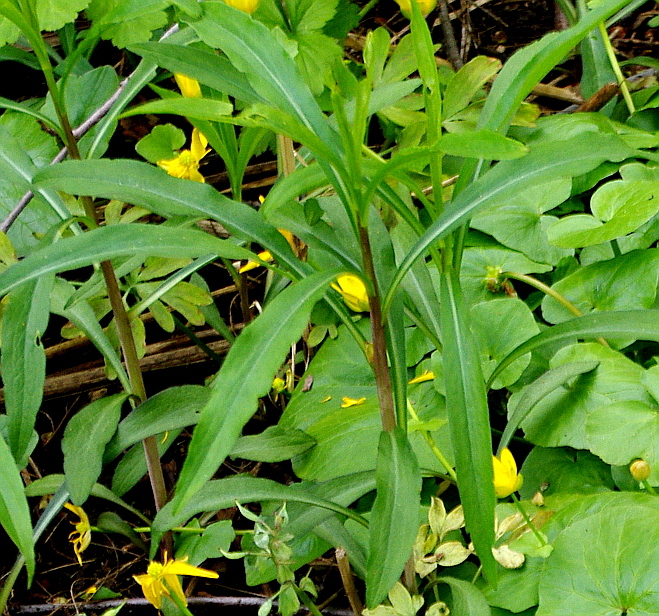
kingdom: Plantae
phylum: Tracheophyta
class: Magnoliopsida
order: Myrtales
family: Onagraceae
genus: Chamaenerion
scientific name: Chamaenerion angustifolium
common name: Fireweed
